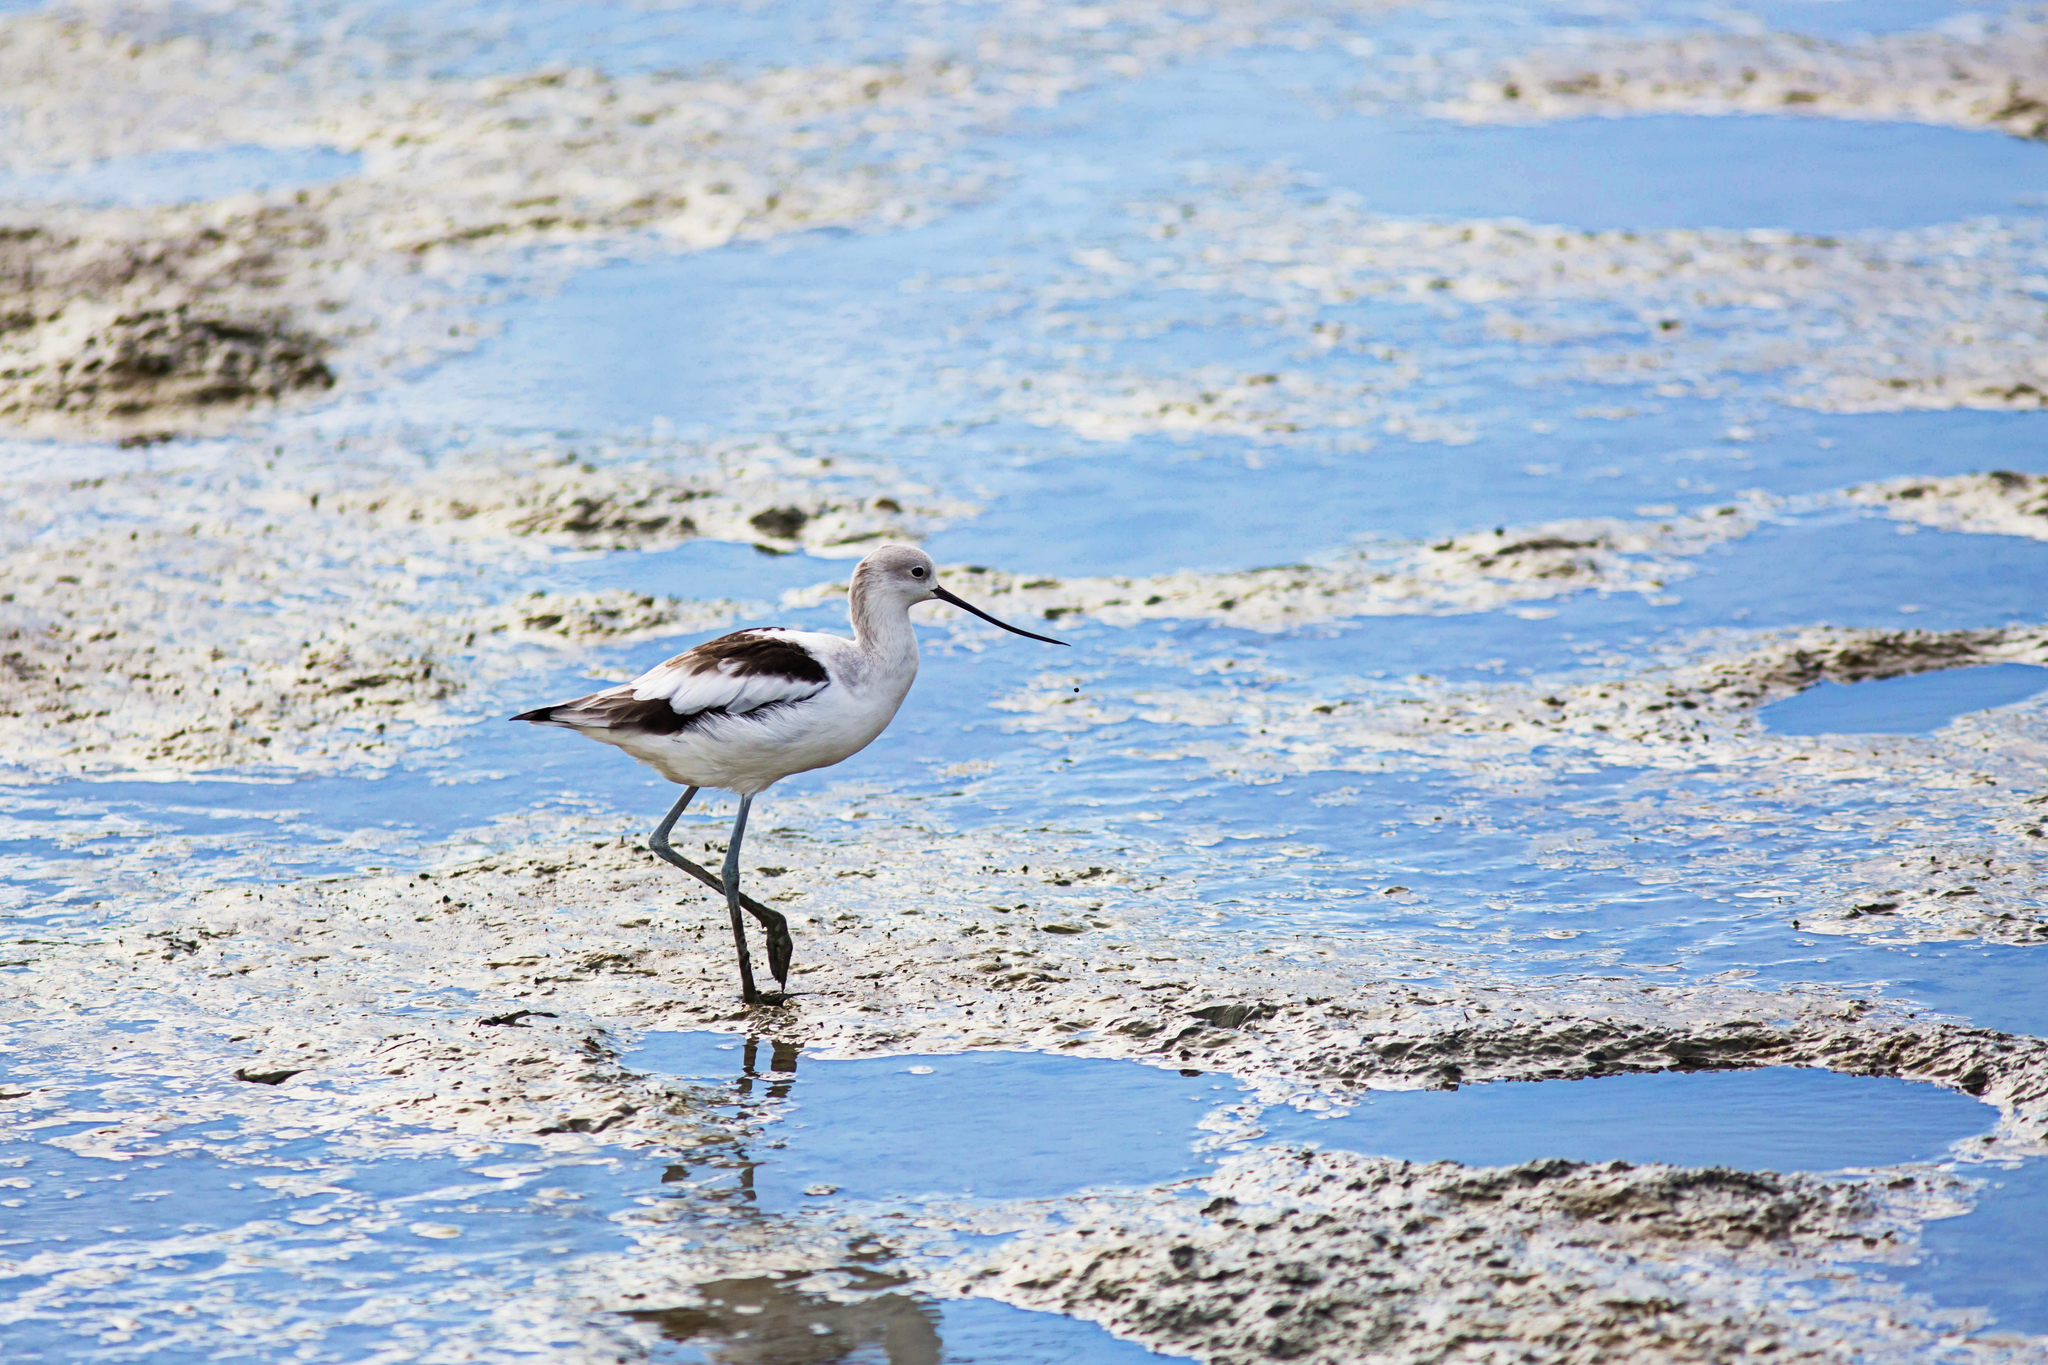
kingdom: Animalia
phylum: Chordata
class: Aves
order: Charadriiformes
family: Recurvirostridae
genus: Recurvirostra
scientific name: Recurvirostra americana
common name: American avocet
